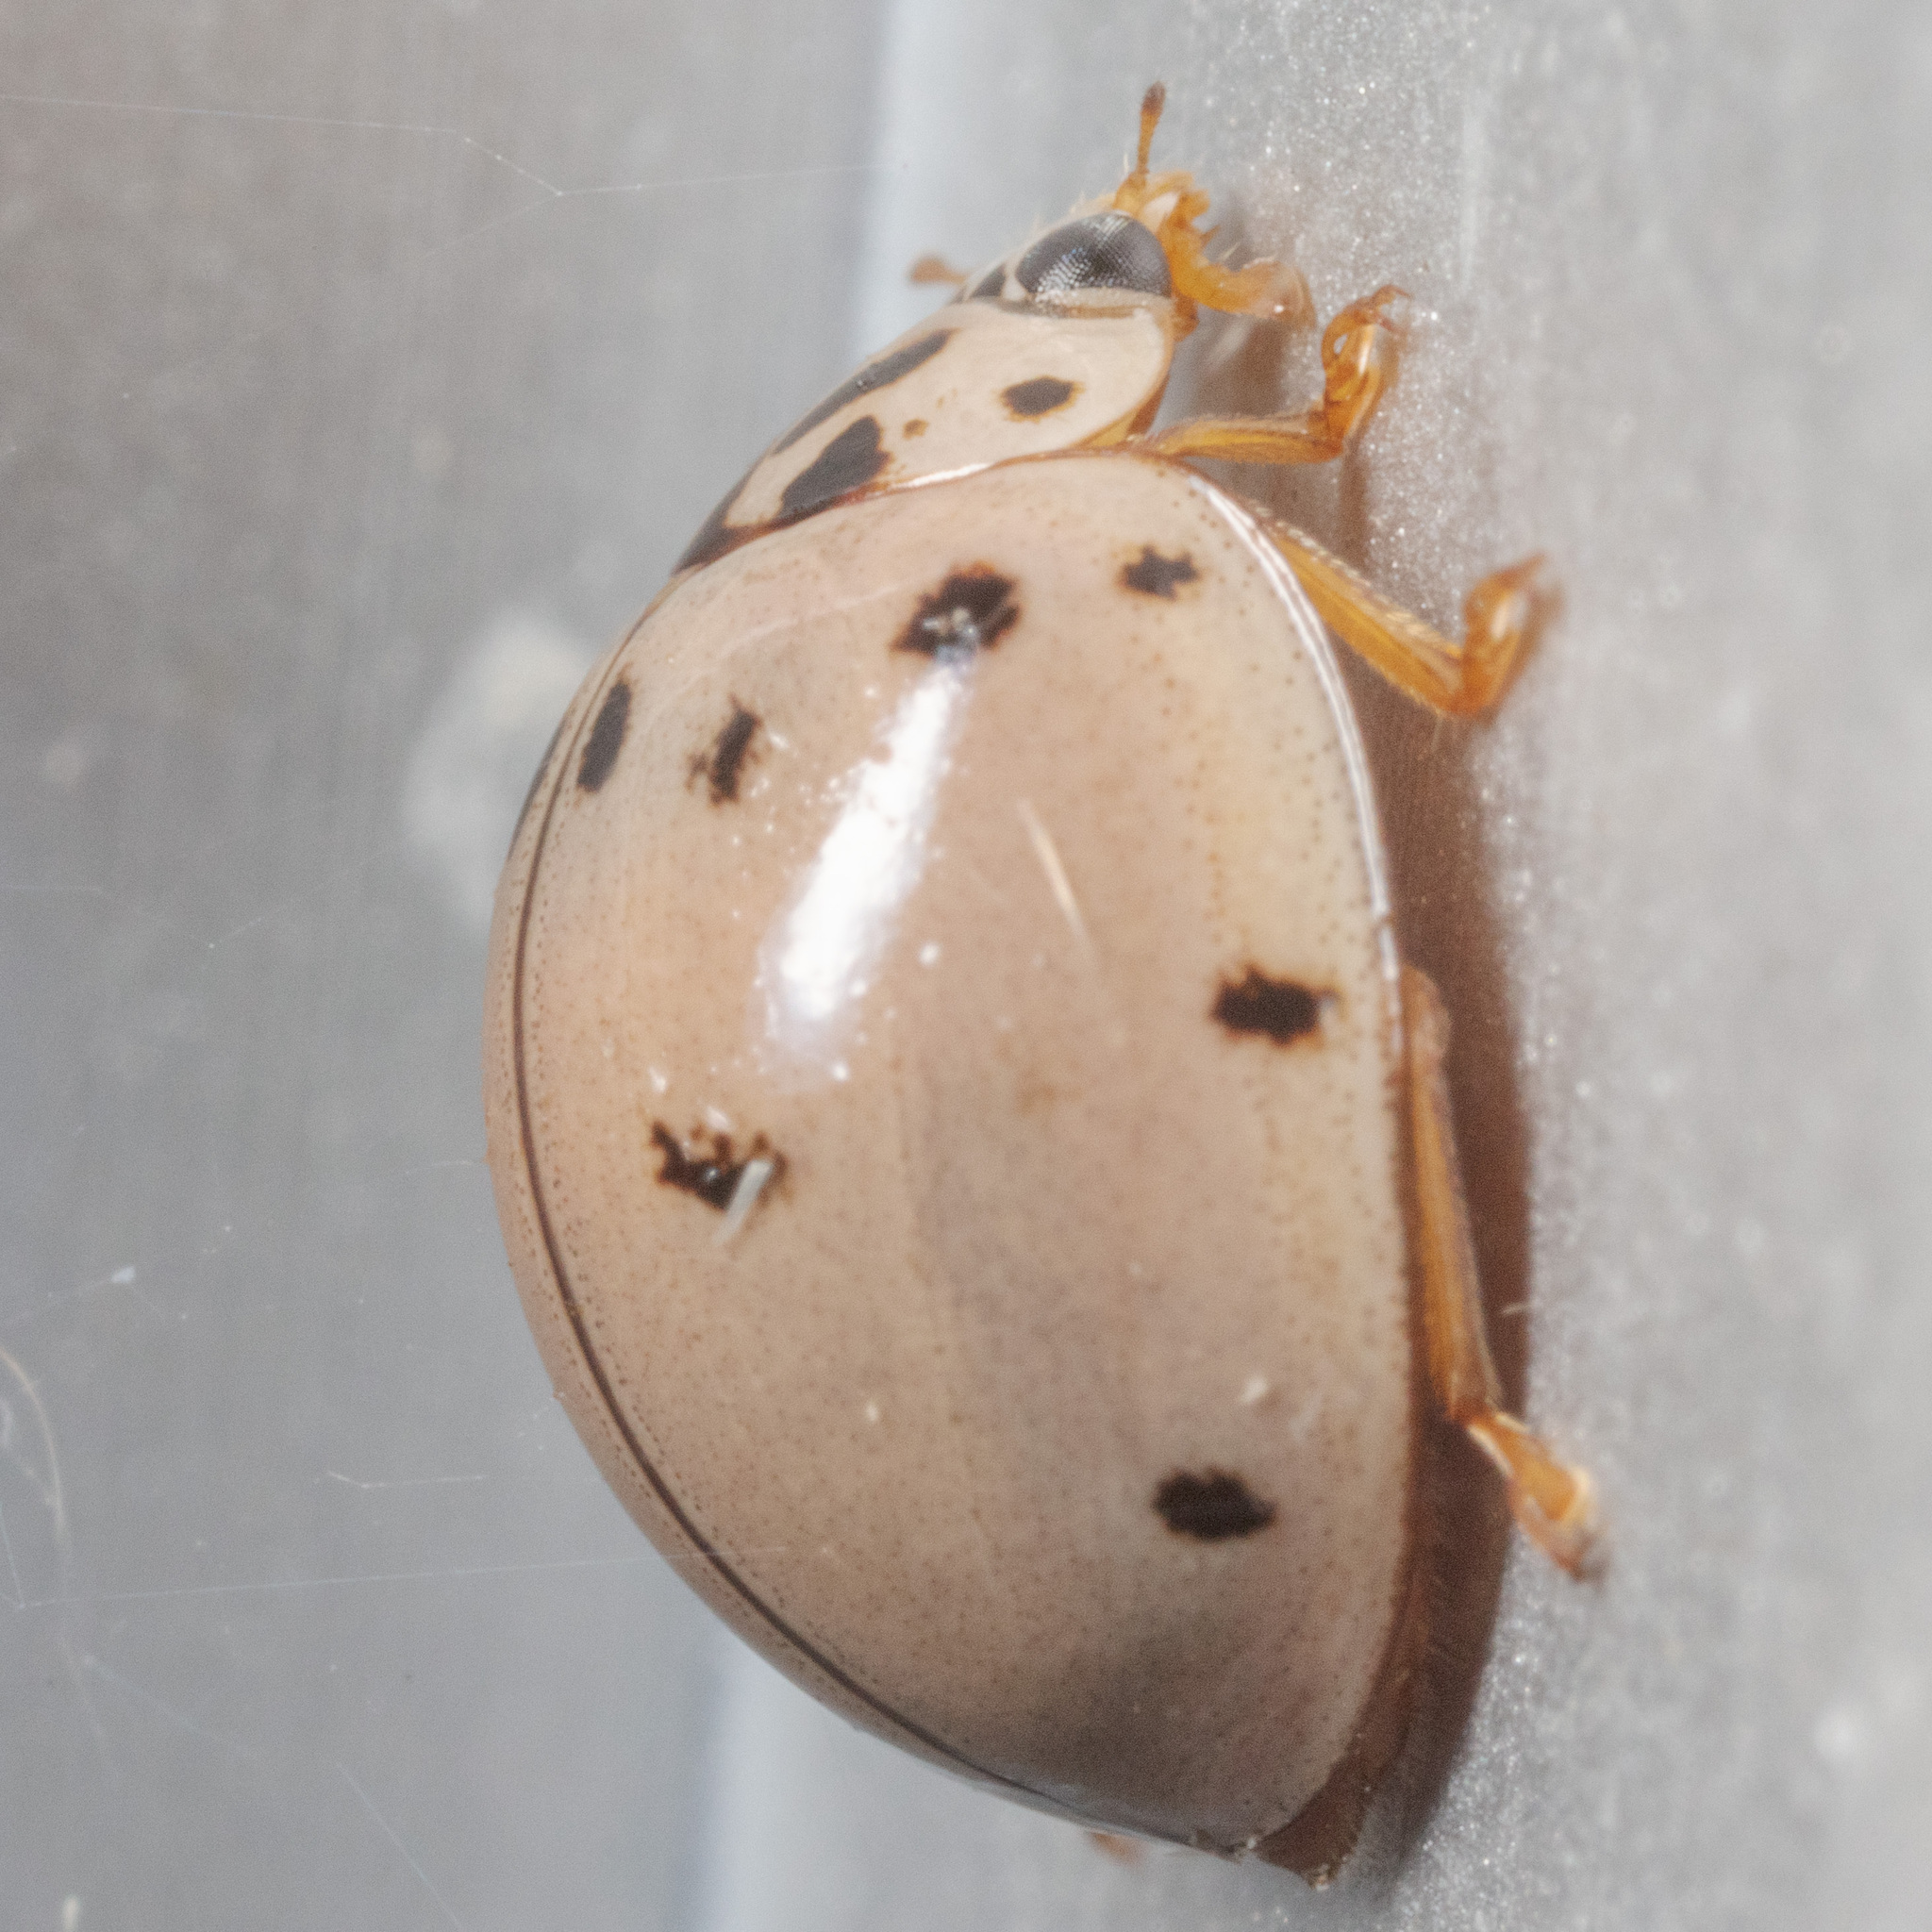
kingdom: Animalia
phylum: Arthropoda
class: Insecta
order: Coleoptera
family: Coccinellidae
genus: Olla
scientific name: Olla v-nigrum
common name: Ashy gray lady beetle
